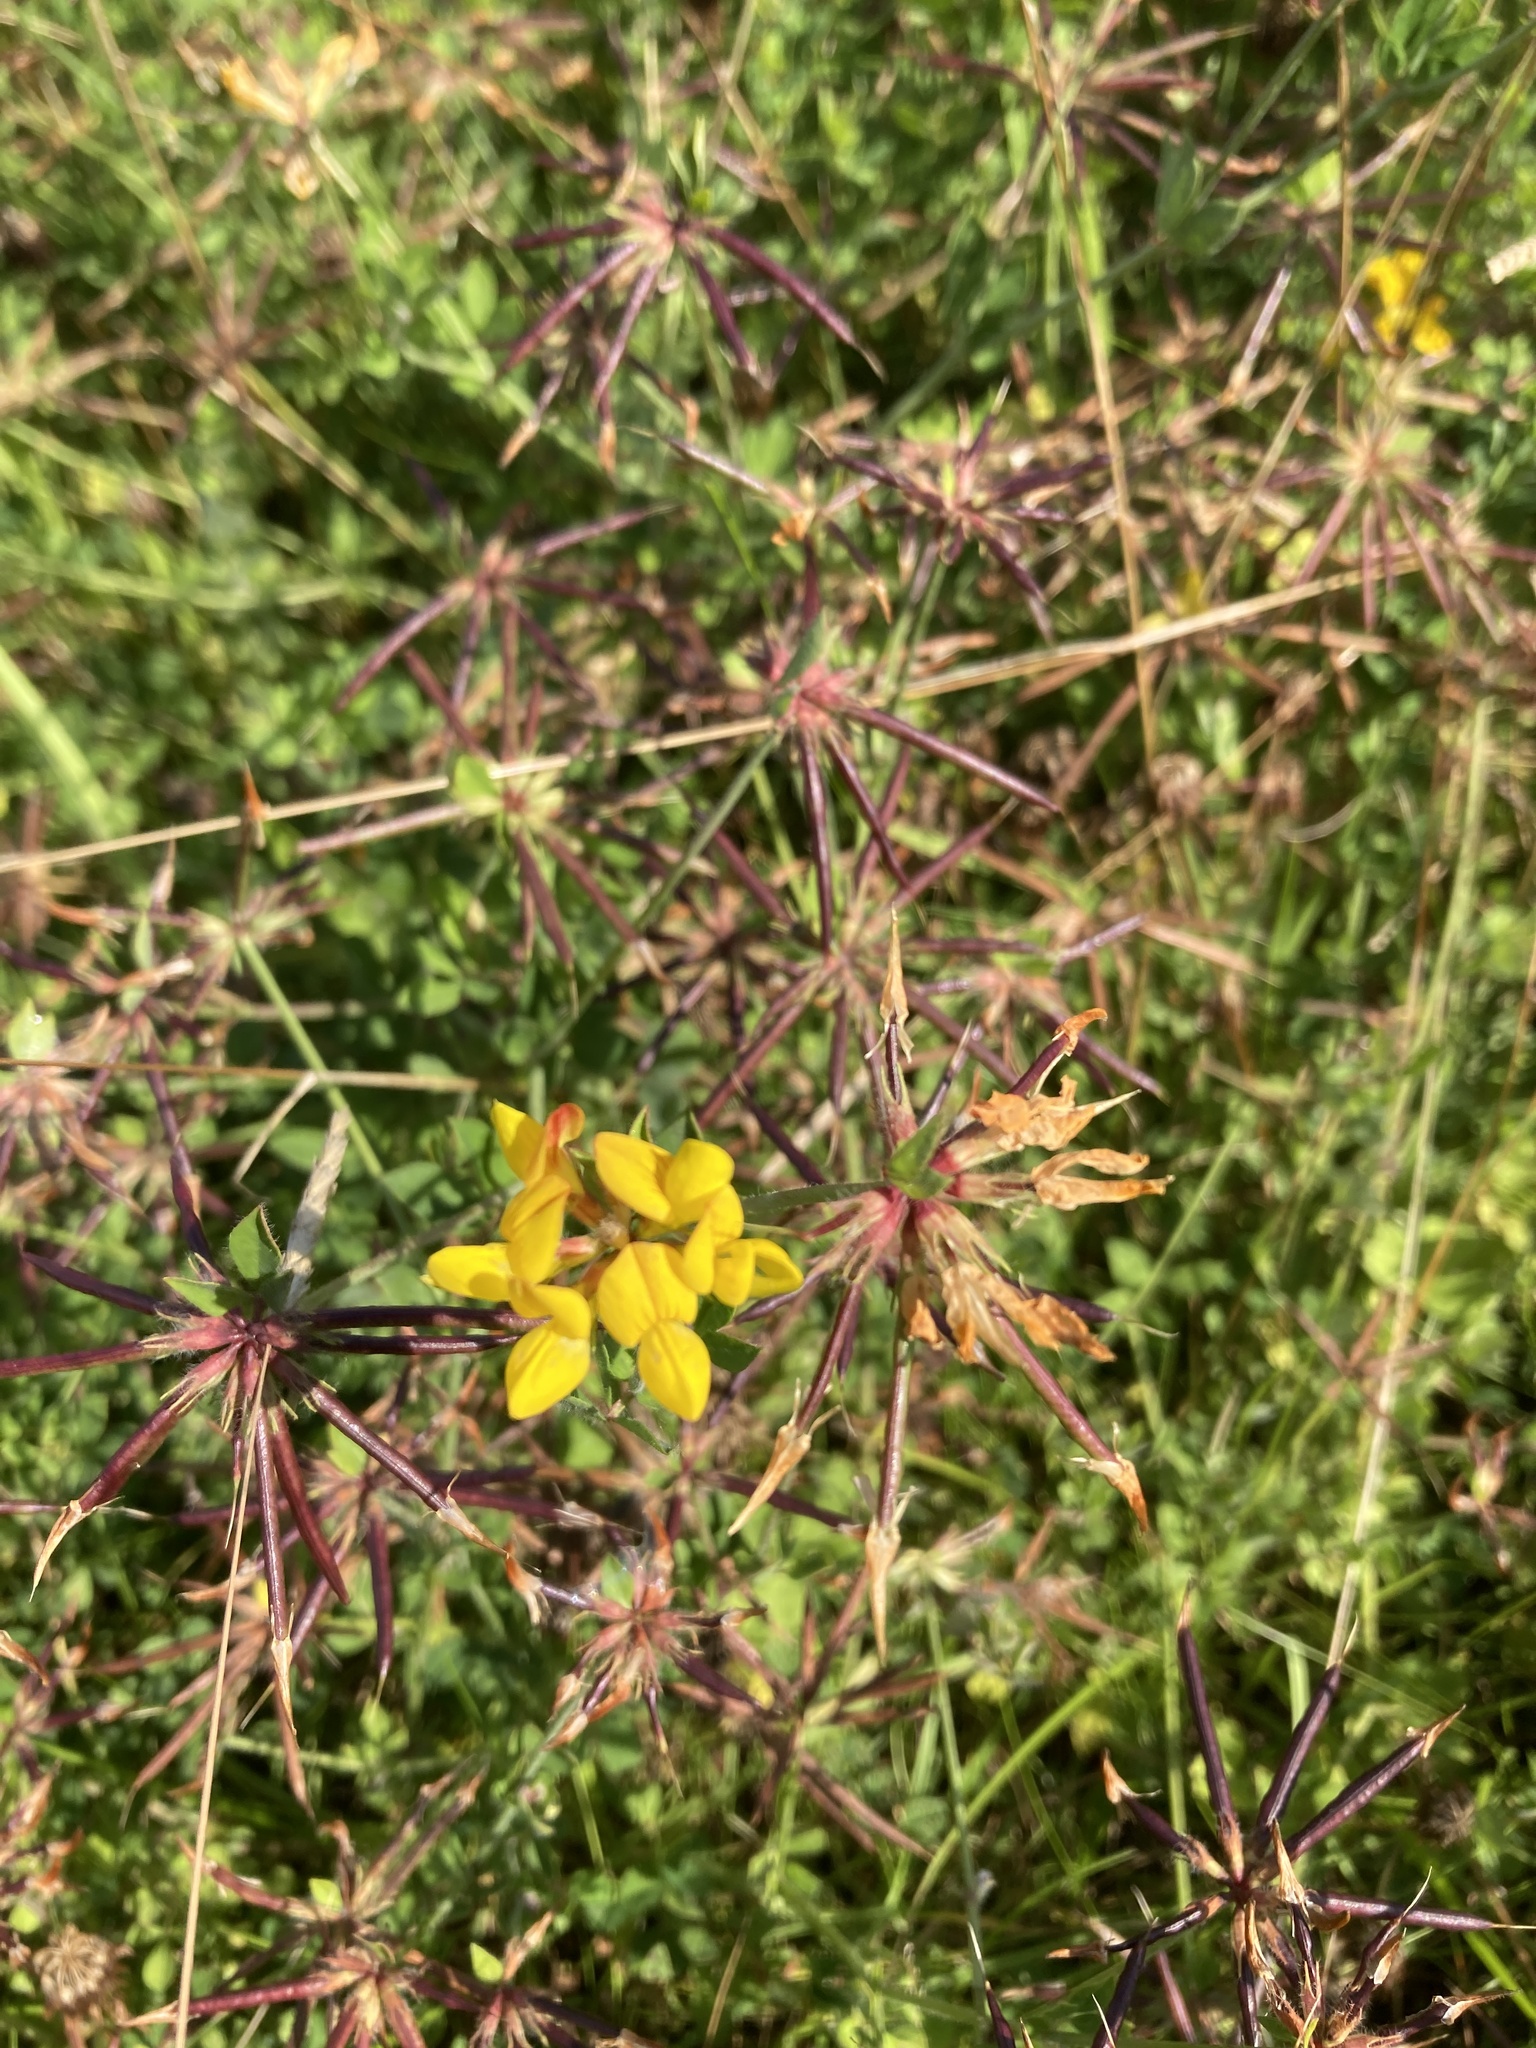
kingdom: Plantae
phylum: Tracheophyta
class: Magnoliopsida
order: Fabales
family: Fabaceae
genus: Lotus
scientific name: Lotus pedunculatus
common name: Greater birdsfoot-trefoil
